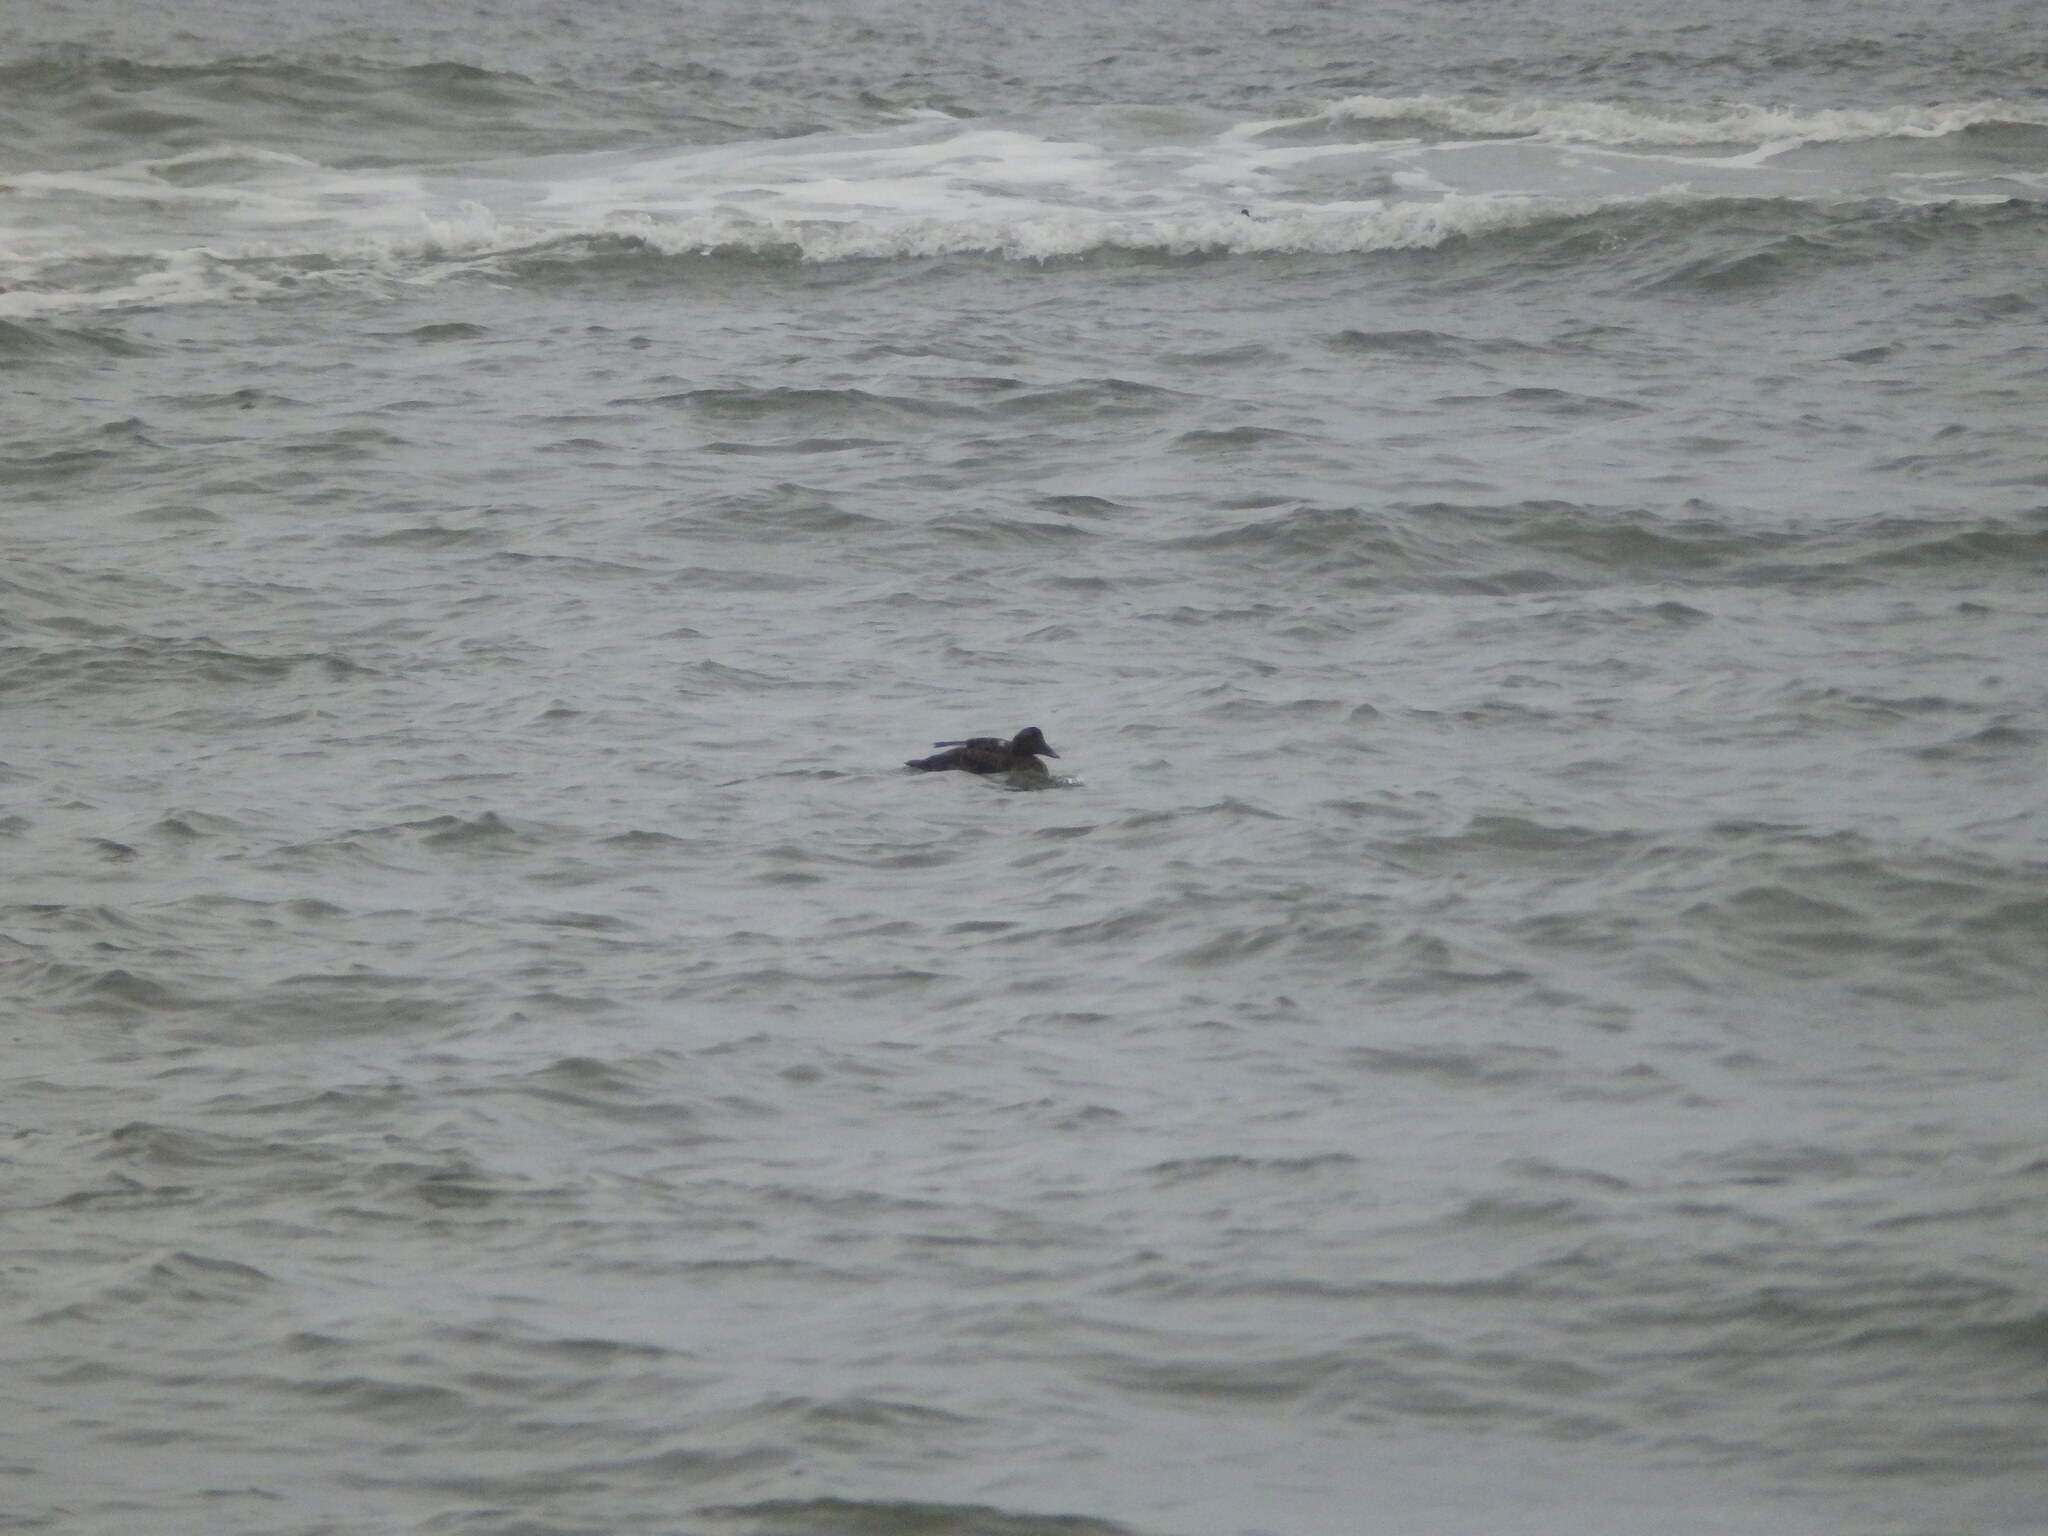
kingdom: Animalia
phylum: Chordata
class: Aves
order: Anseriformes
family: Anatidae
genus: Somateria
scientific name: Somateria mollissima
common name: Common eider
